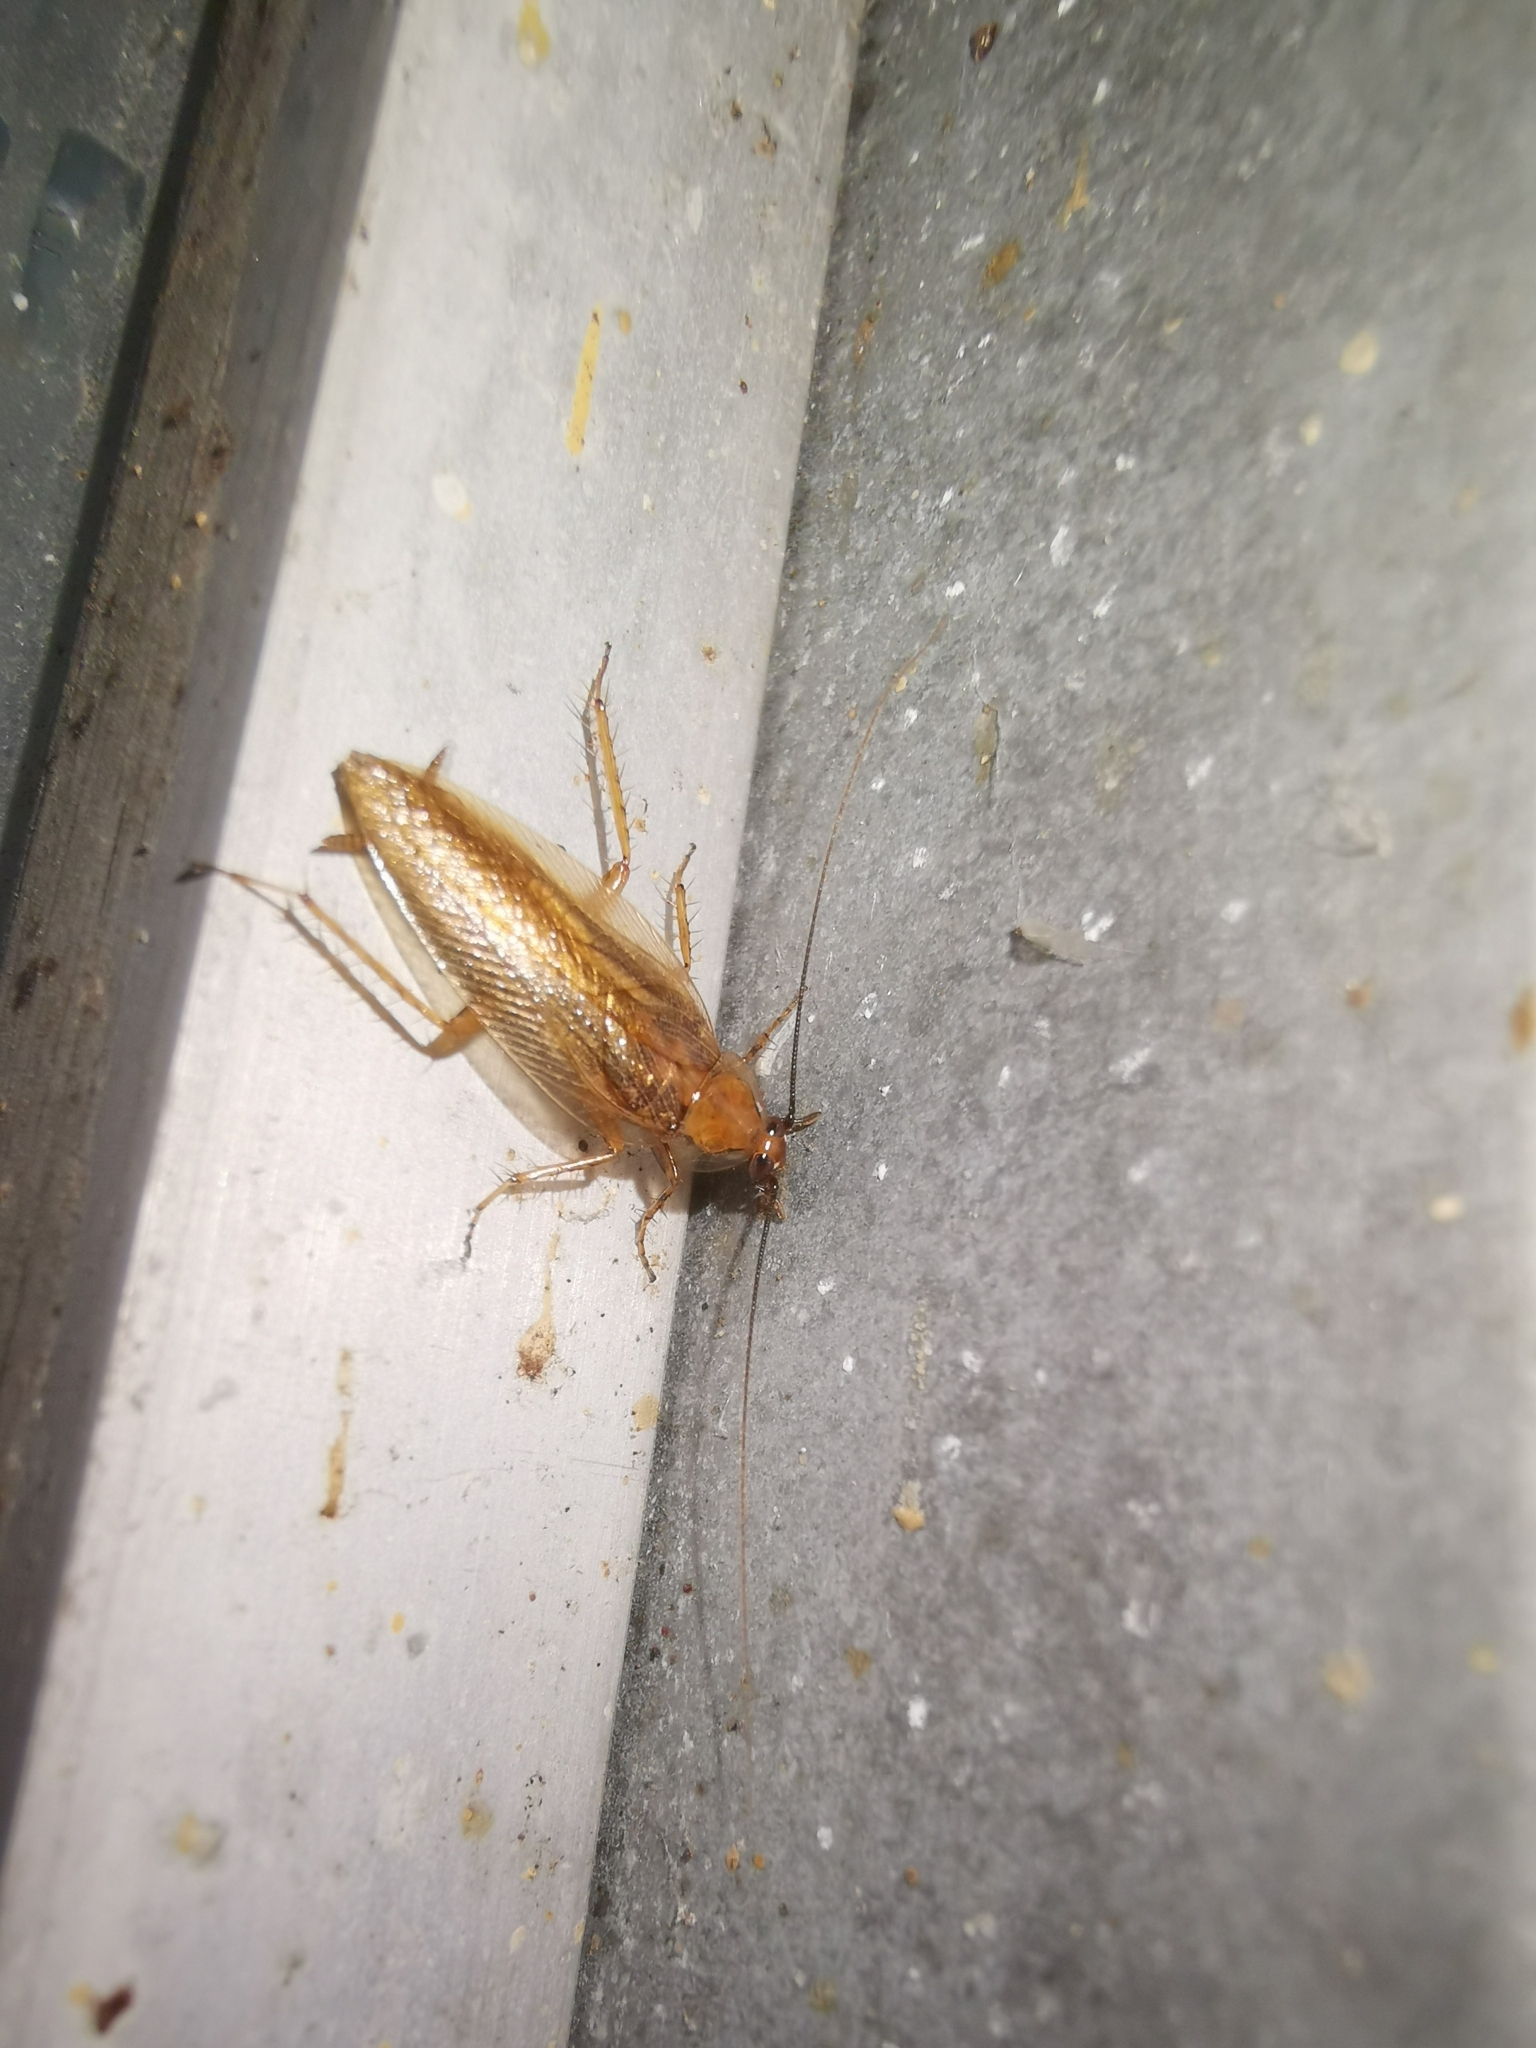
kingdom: Animalia
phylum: Arthropoda
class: Insecta
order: Blattodea
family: Ectobiidae
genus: Ectobius
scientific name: Ectobius vittiventris
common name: Garden cockroach
